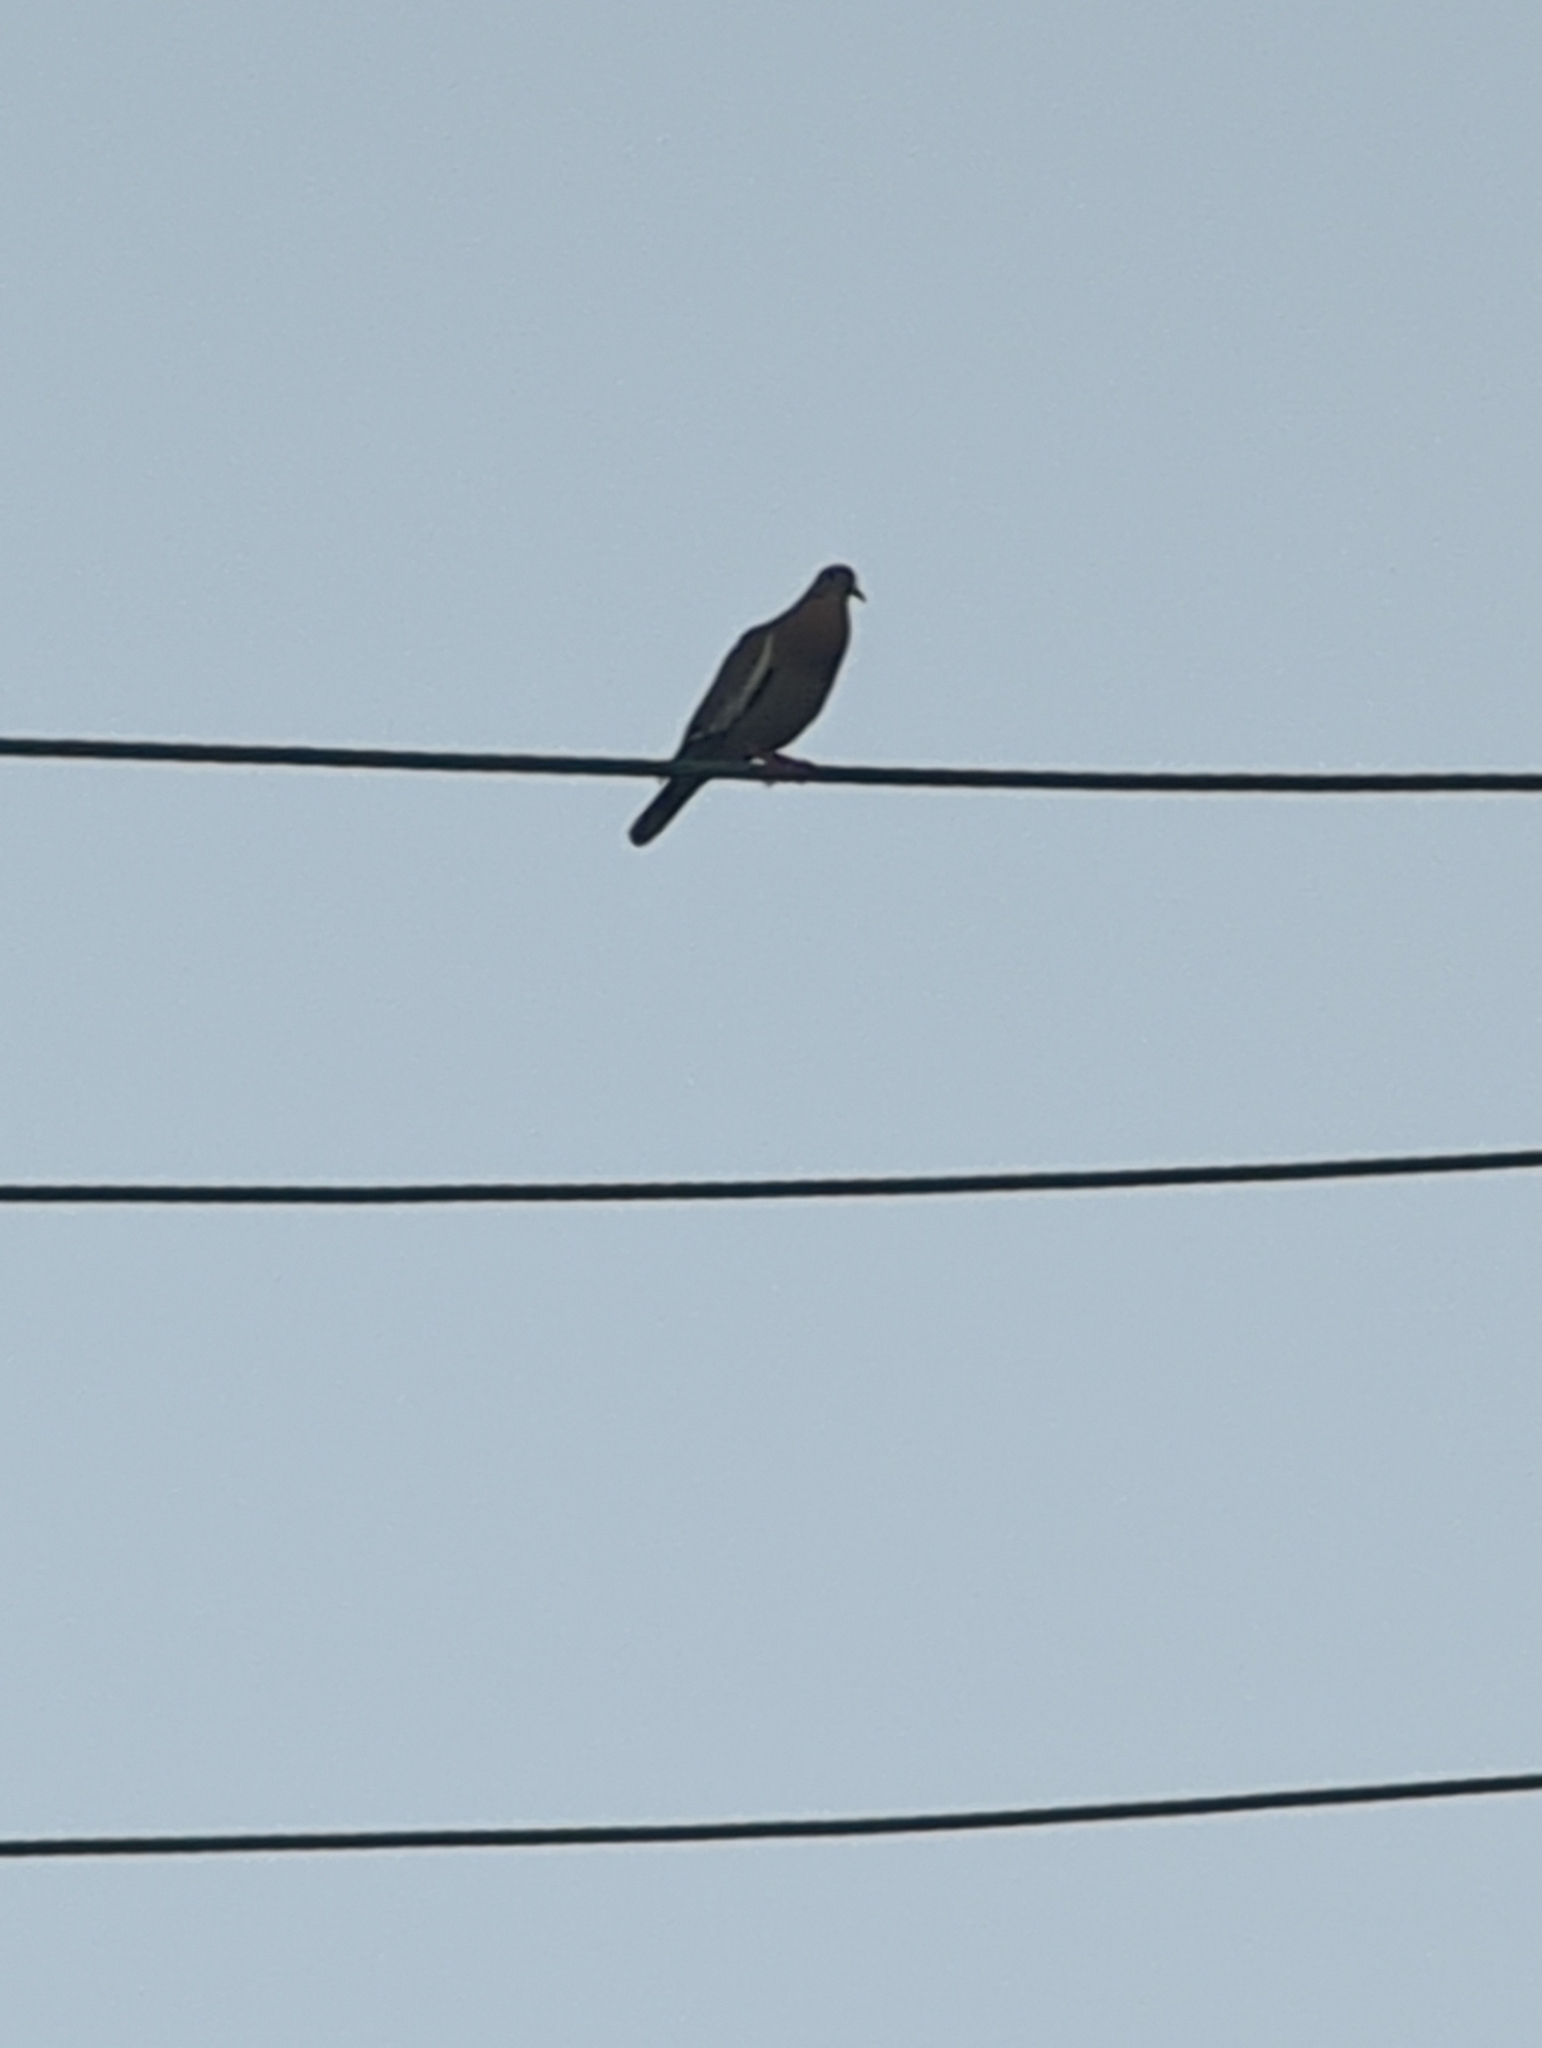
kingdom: Animalia
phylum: Chordata
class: Aves
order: Columbiformes
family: Columbidae
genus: Zenaida
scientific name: Zenaida asiatica
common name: White-winged dove
